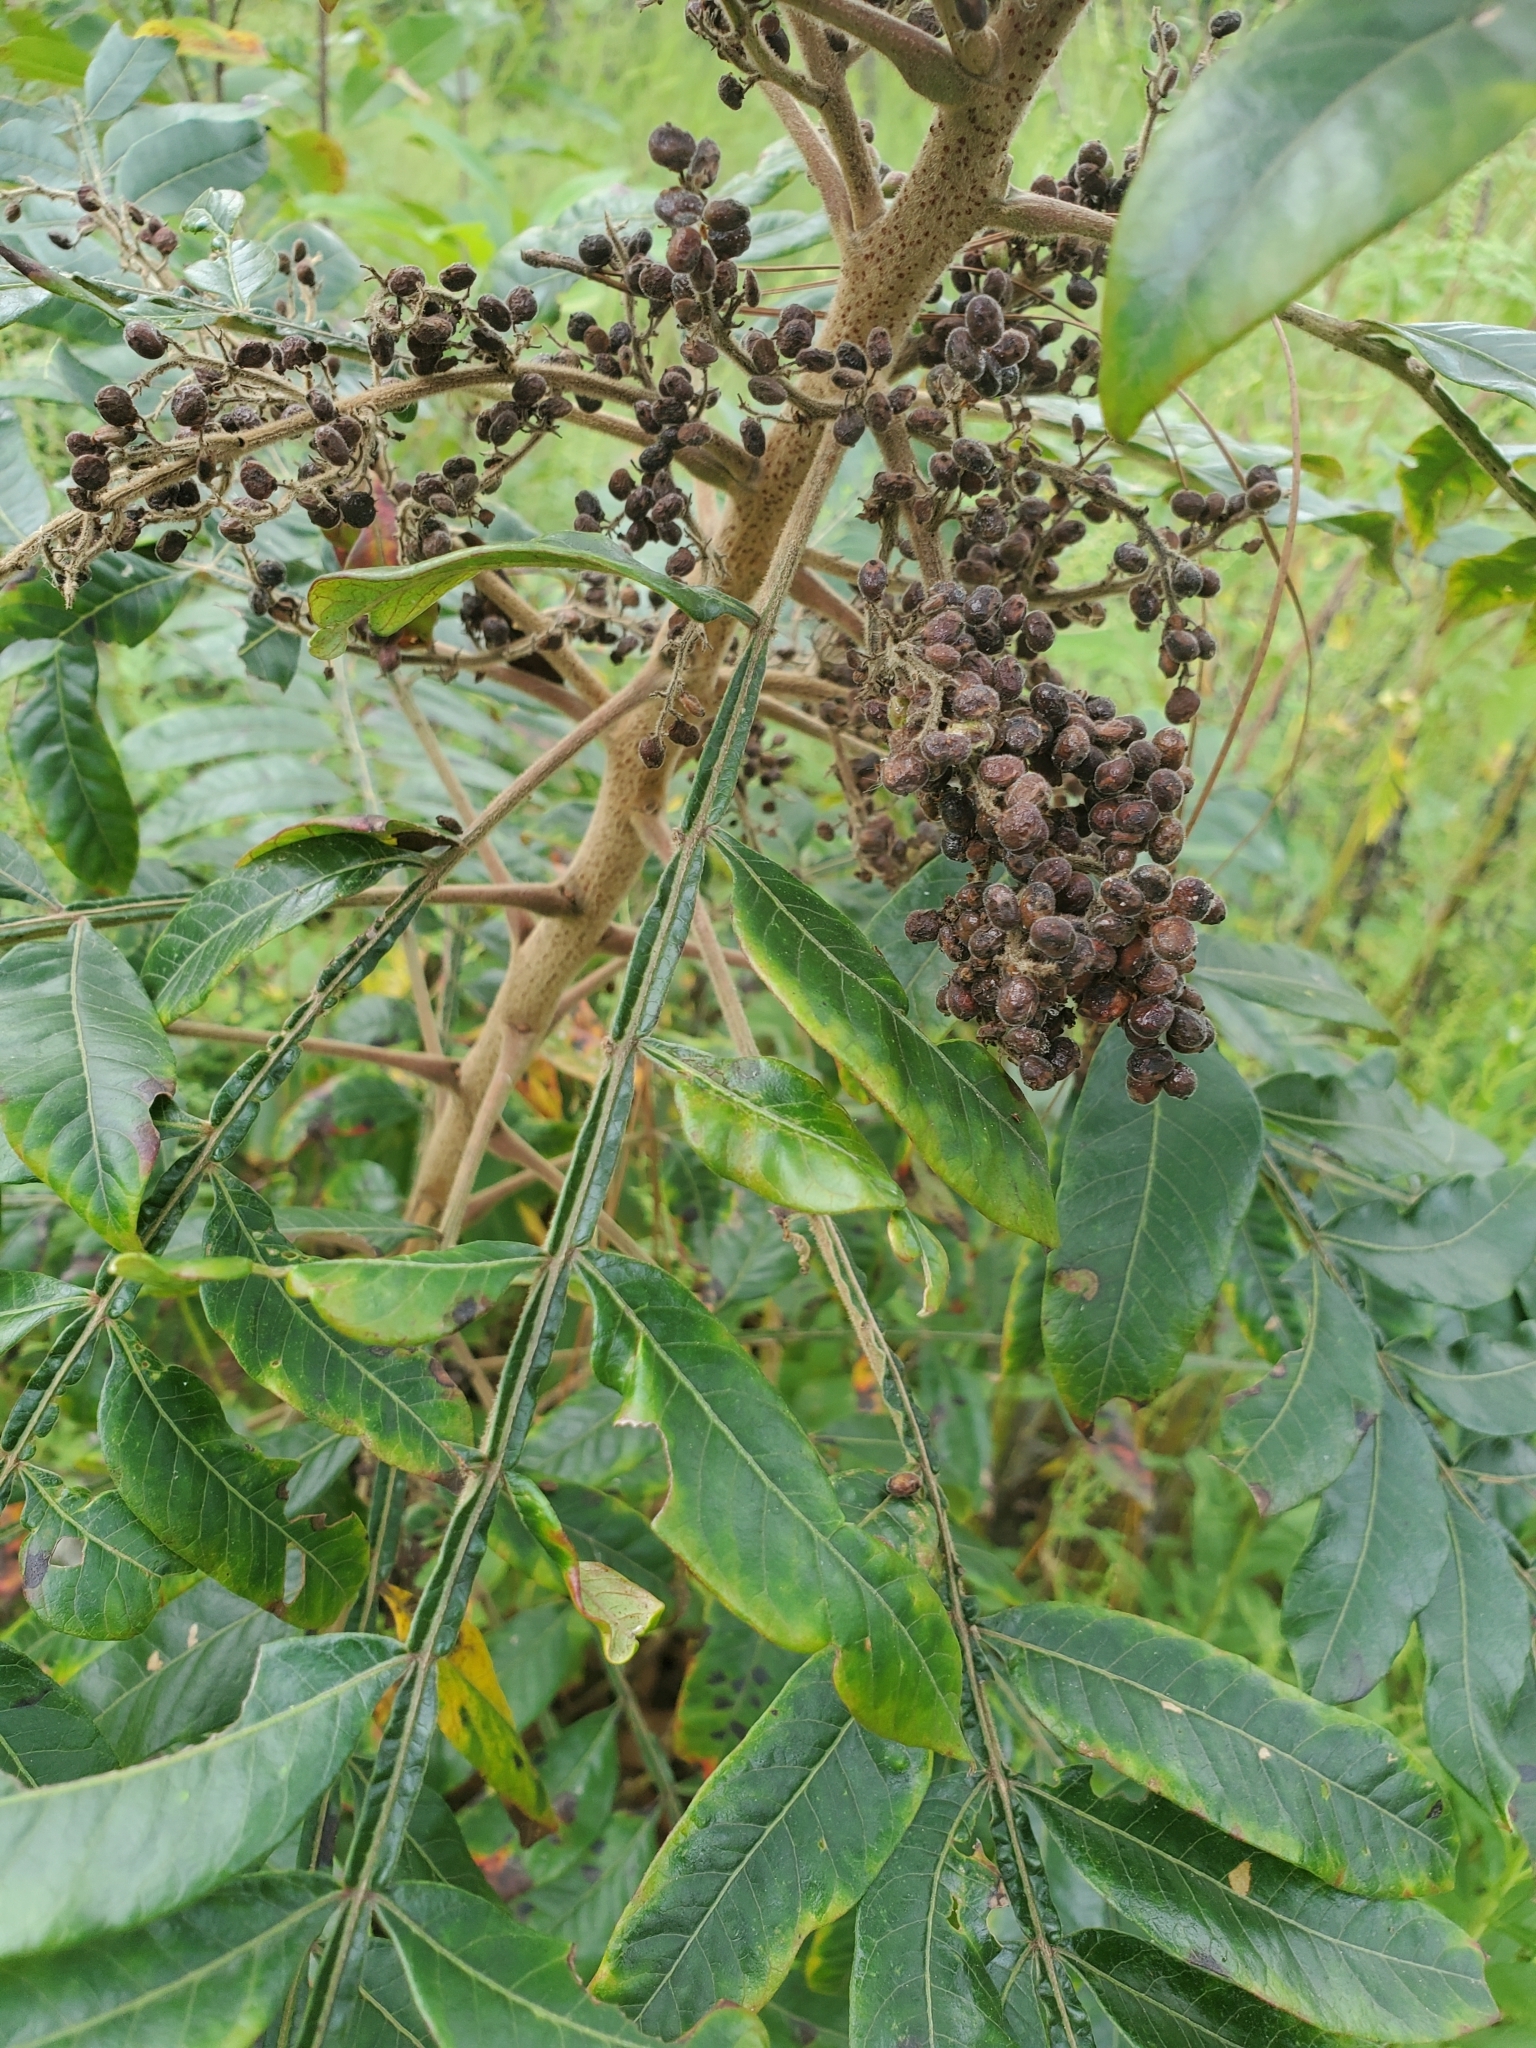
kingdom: Plantae
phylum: Tracheophyta
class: Magnoliopsida
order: Sapindales
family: Anacardiaceae
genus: Rhus
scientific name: Rhus copallina
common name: Shining sumac
